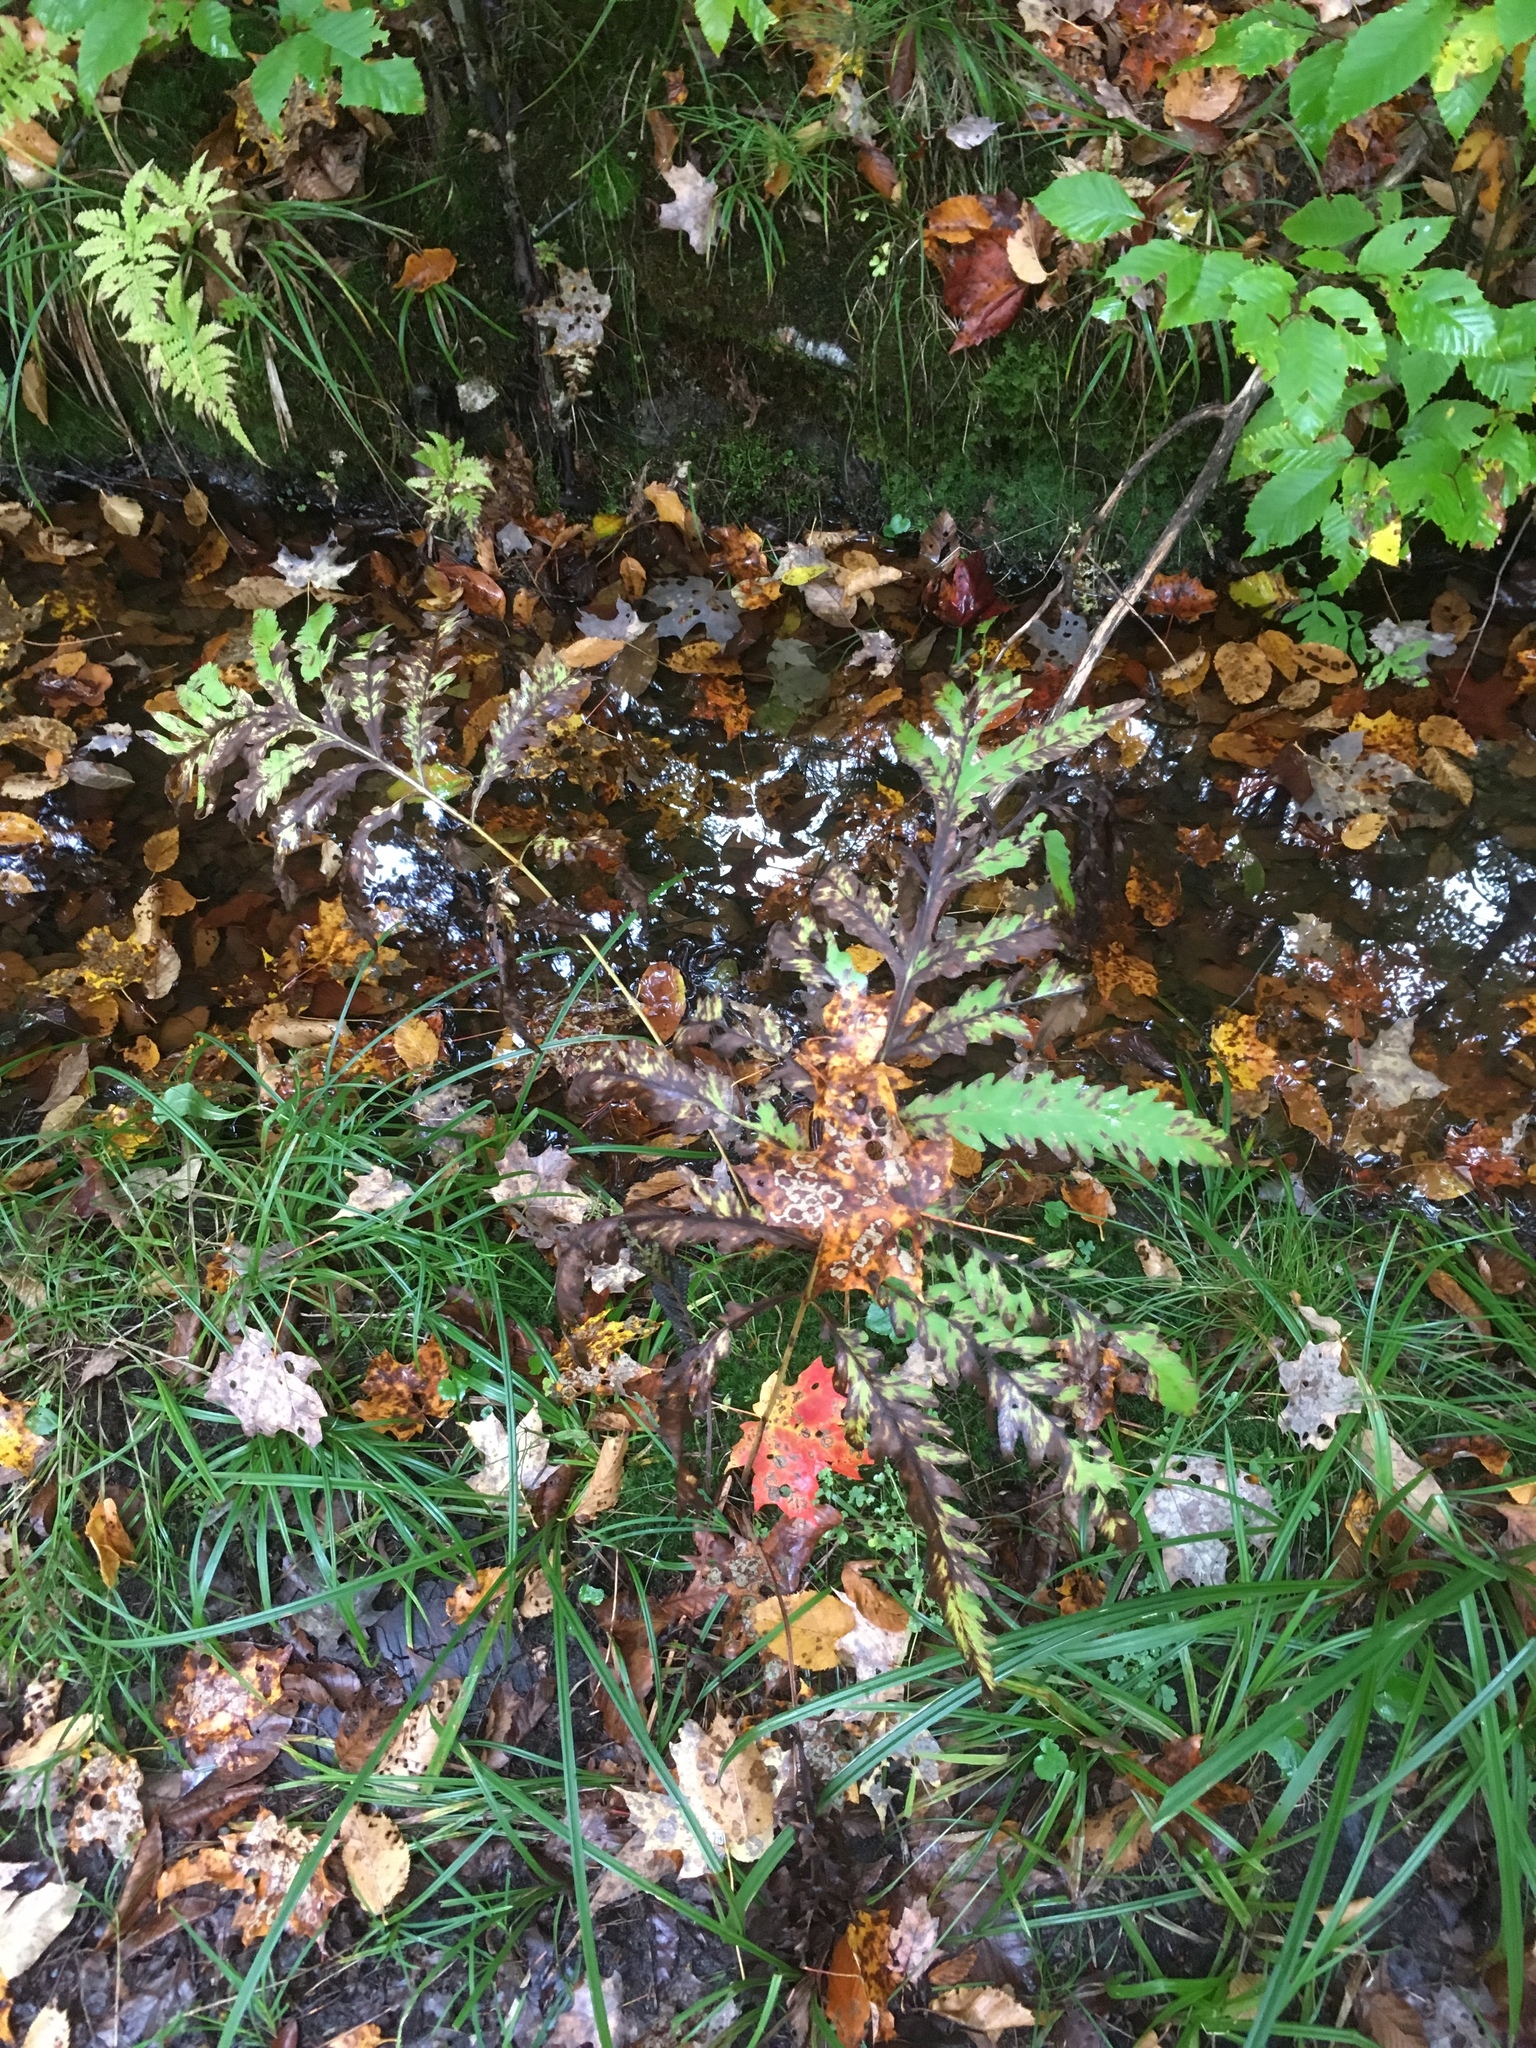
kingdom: Plantae
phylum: Tracheophyta
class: Polypodiopsida
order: Polypodiales
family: Onocleaceae
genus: Onoclea
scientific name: Onoclea sensibilis
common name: Sensitive fern
